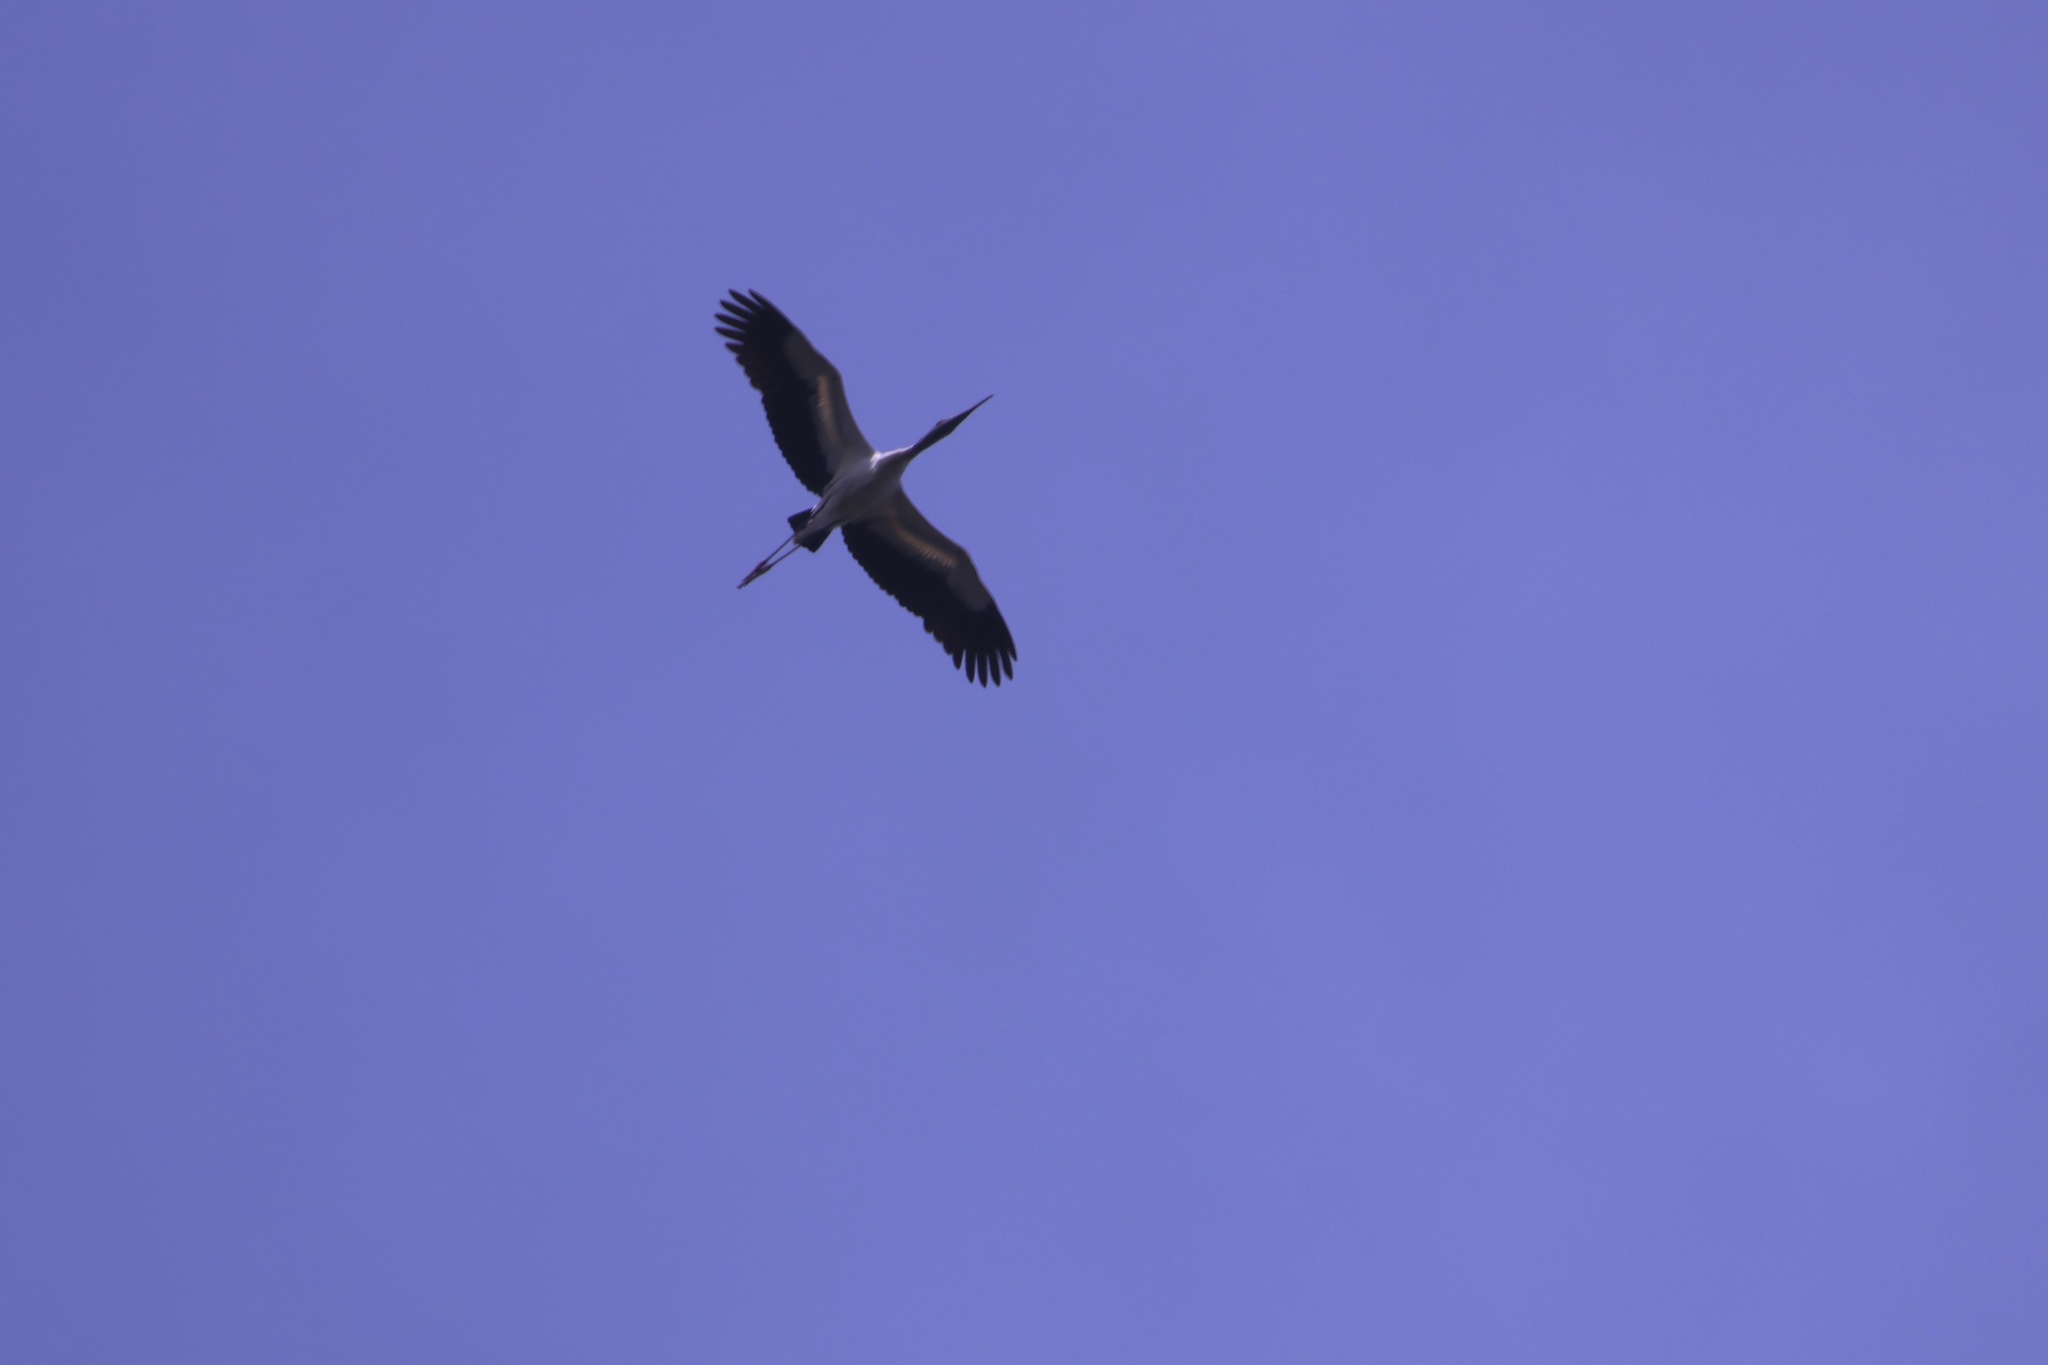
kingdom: Animalia
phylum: Chordata
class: Aves
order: Ciconiiformes
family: Ciconiidae
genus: Mycteria
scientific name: Mycteria americana
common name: Wood stork
